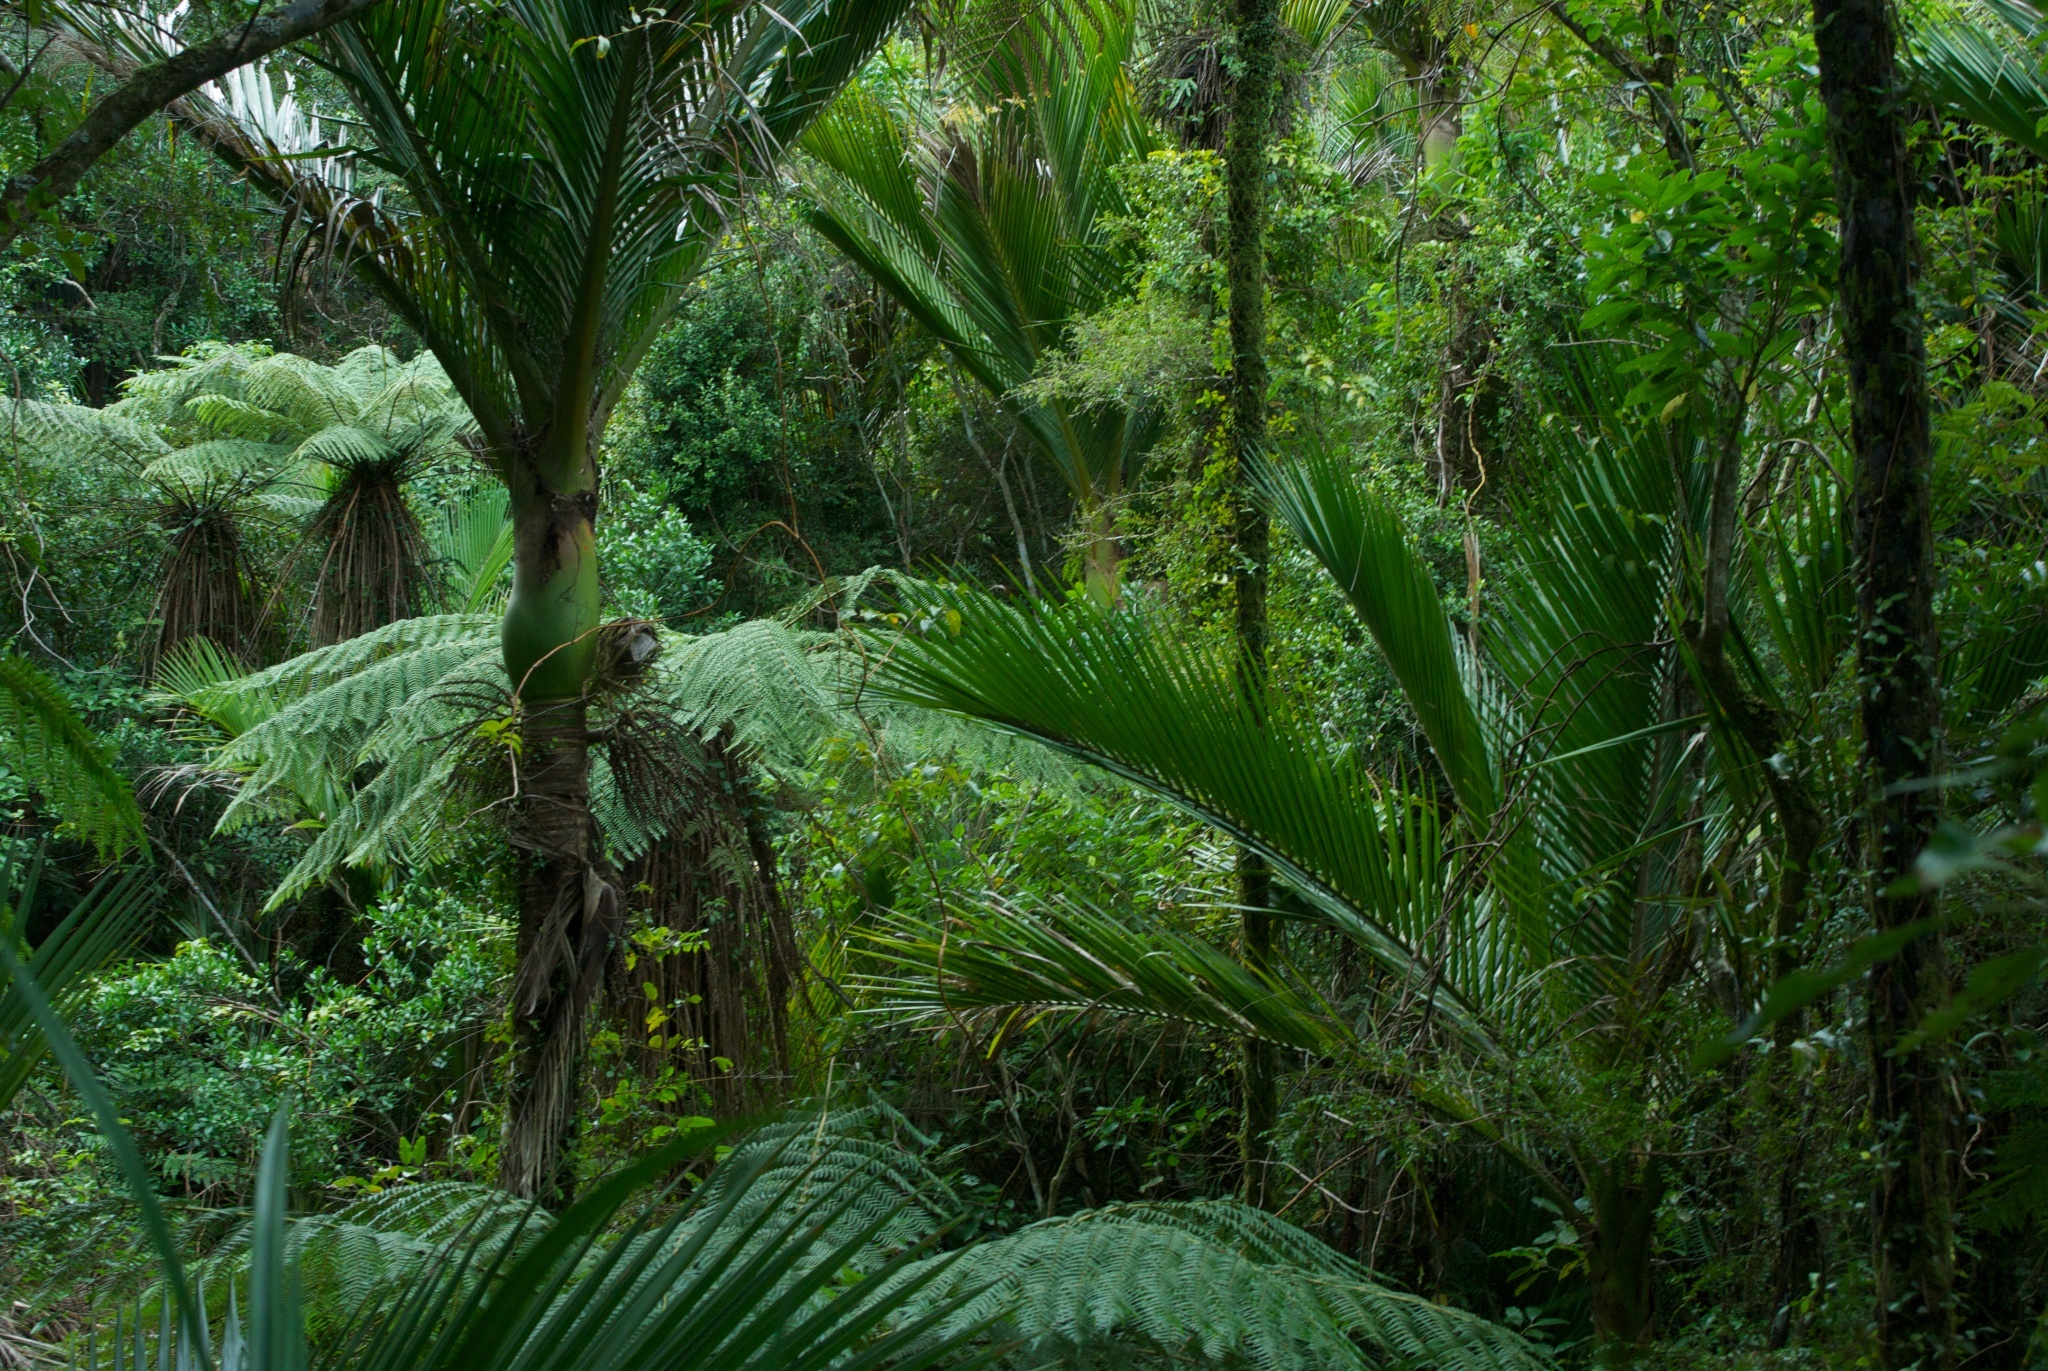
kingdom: Plantae
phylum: Tracheophyta
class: Liliopsida
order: Arecales
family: Arecaceae
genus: Rhopalostylis
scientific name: Rhopalostylis sapida
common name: Feather-duster palm
